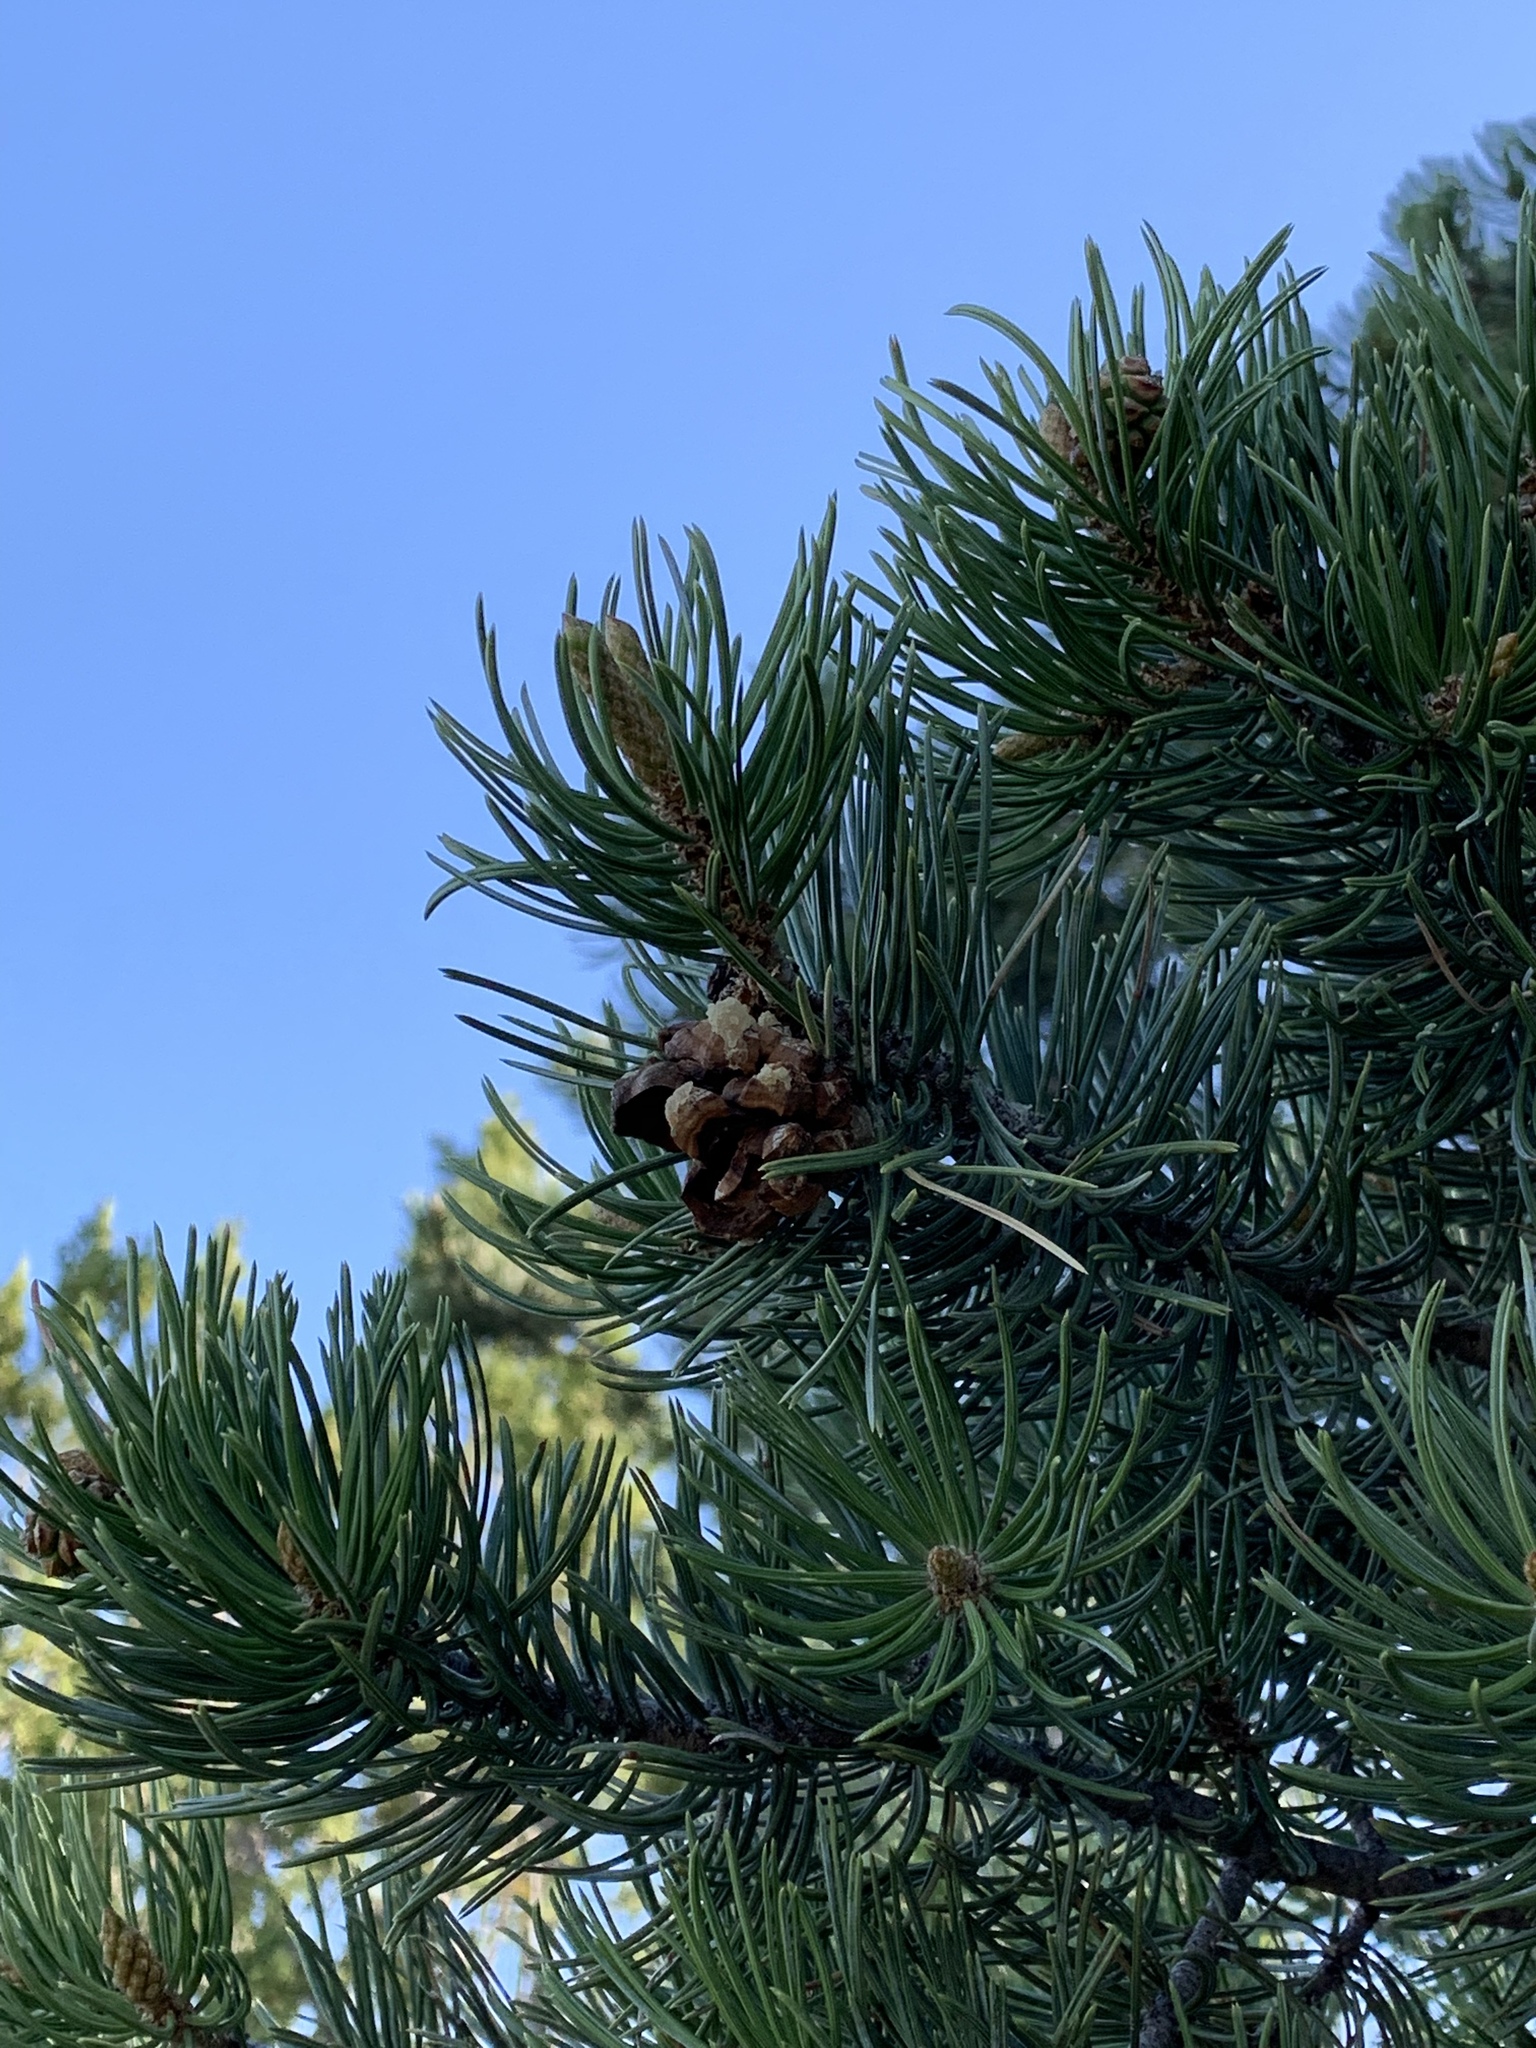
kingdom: Plantae
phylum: Tracheophyta
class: Pinopsida
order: Pinales
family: Pinaceae
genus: Pinus
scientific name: Pinus edulis
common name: Colorado pinyon
